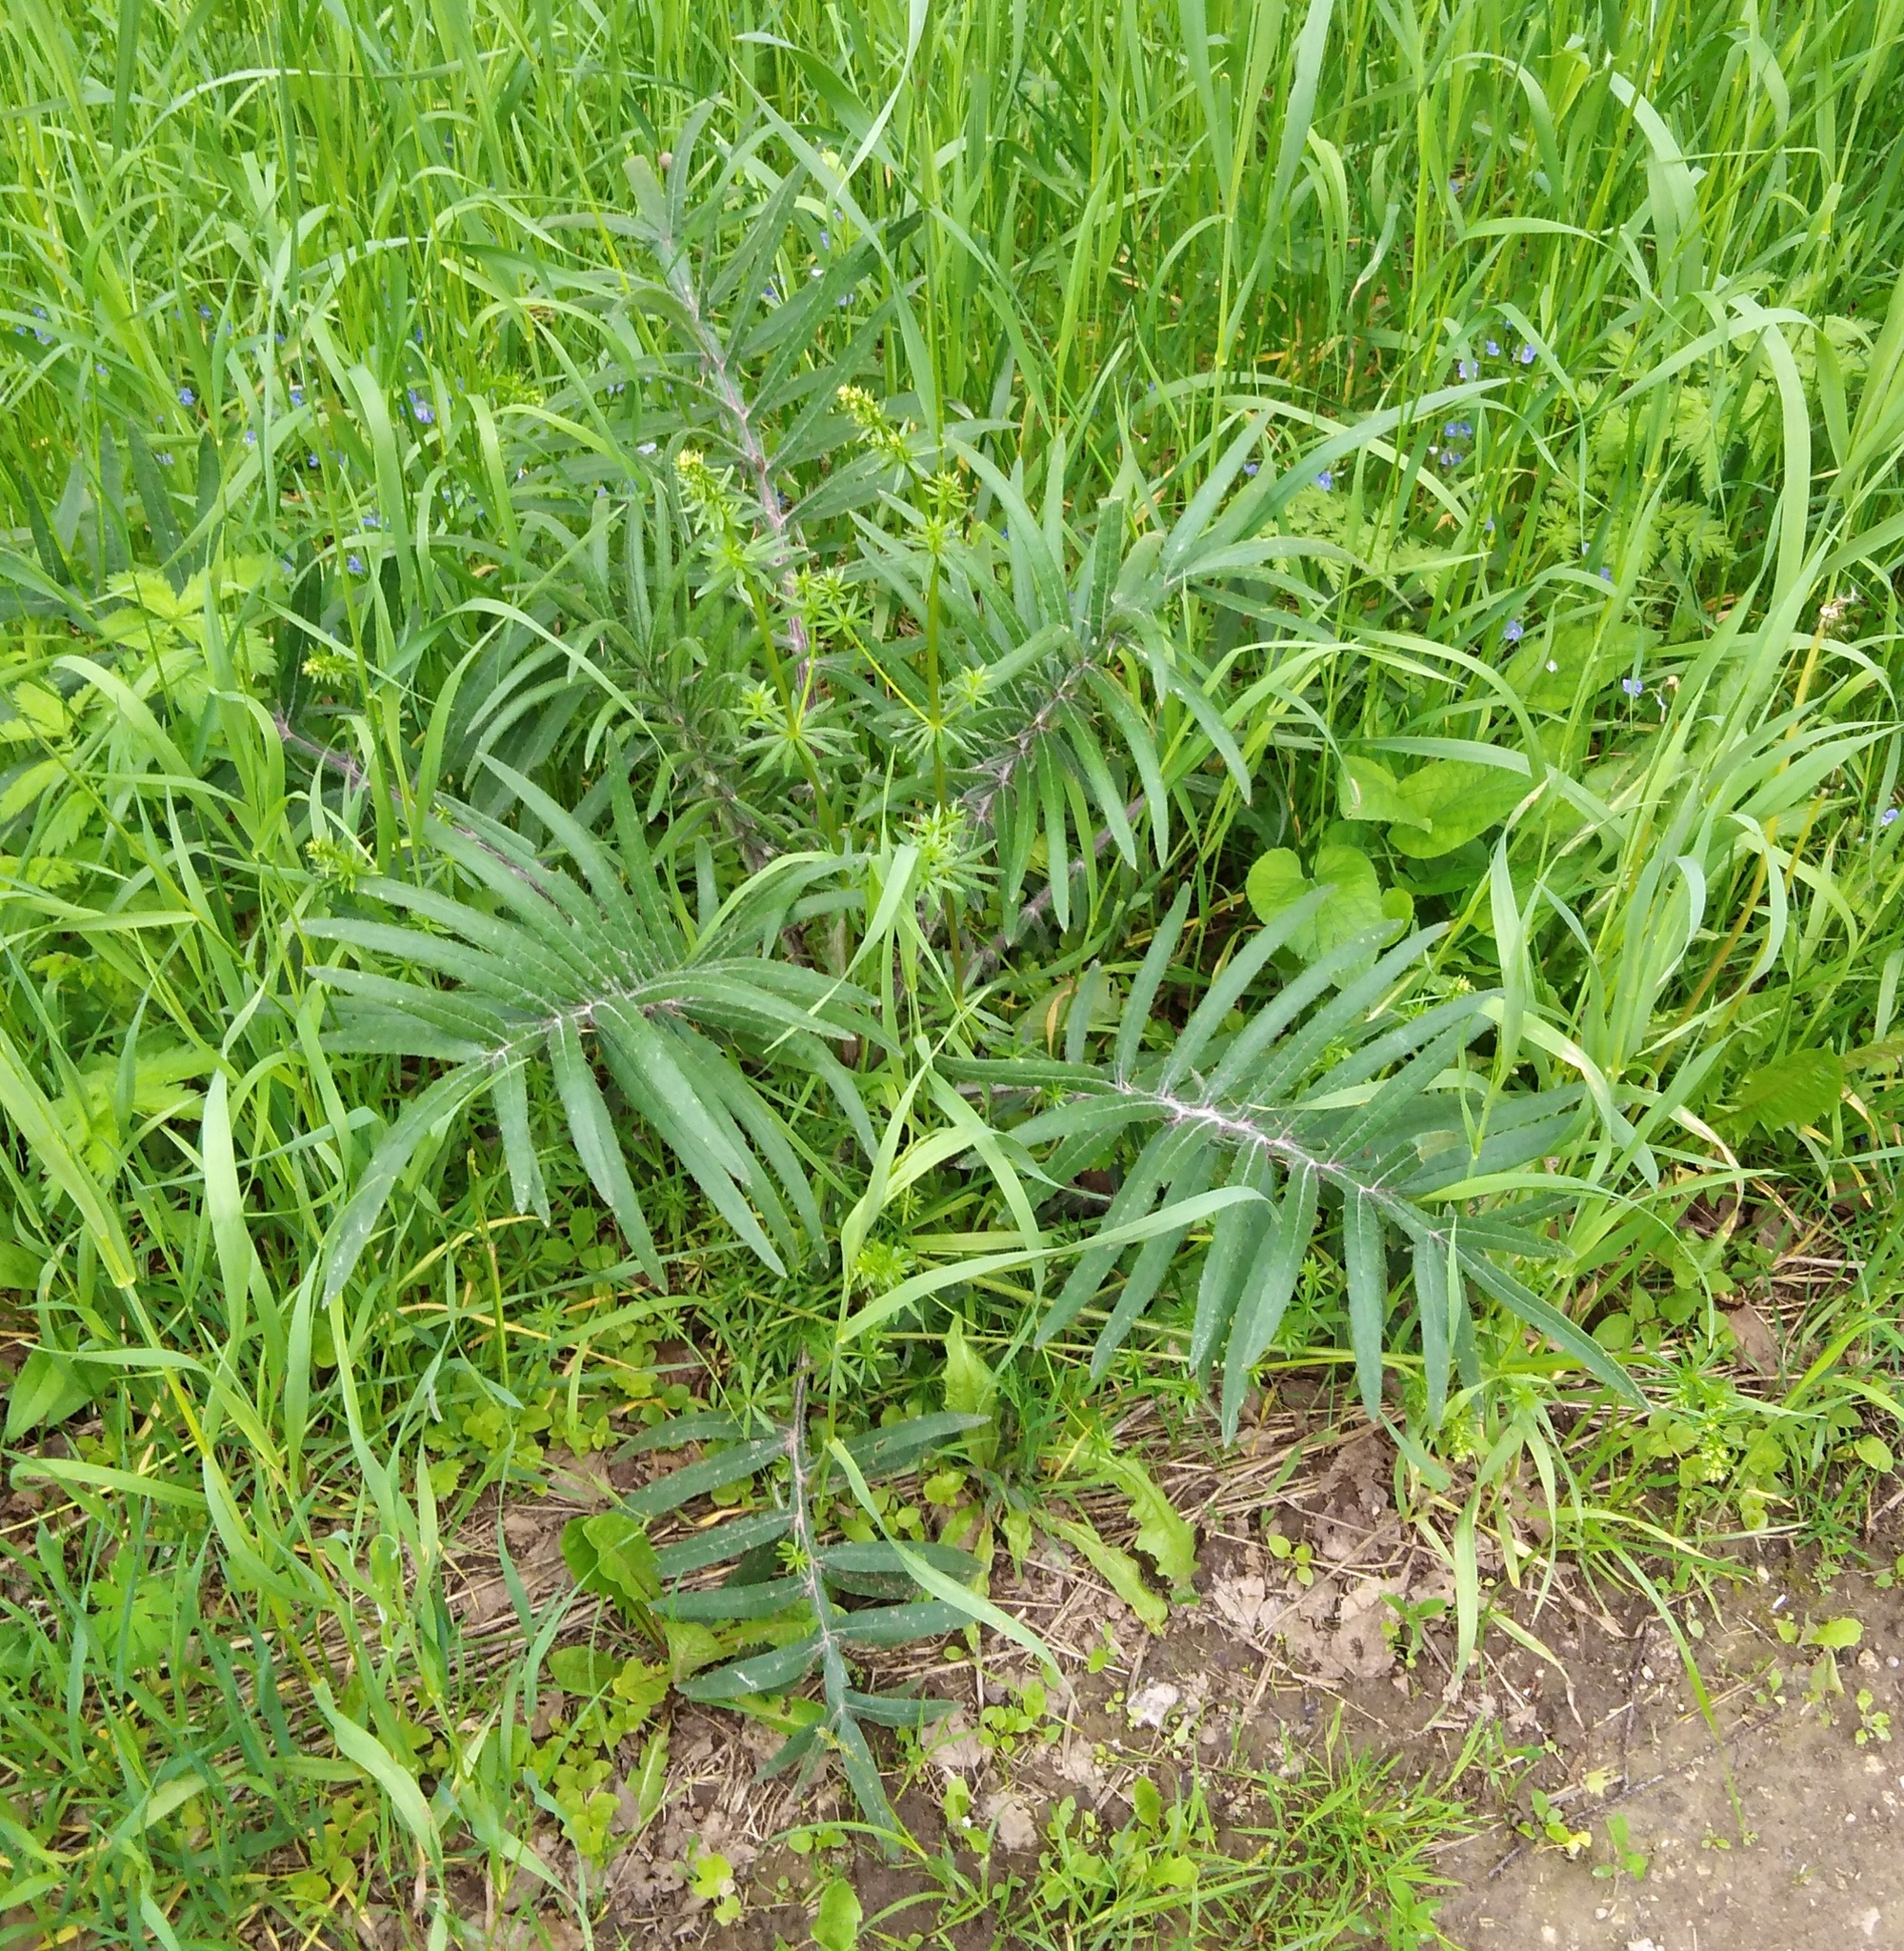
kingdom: Plantae
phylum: Tracheophyta
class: Magnoliopsida
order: Asterales
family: Asteraceae
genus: Lophiolepis
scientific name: Lophiolepis decussata
